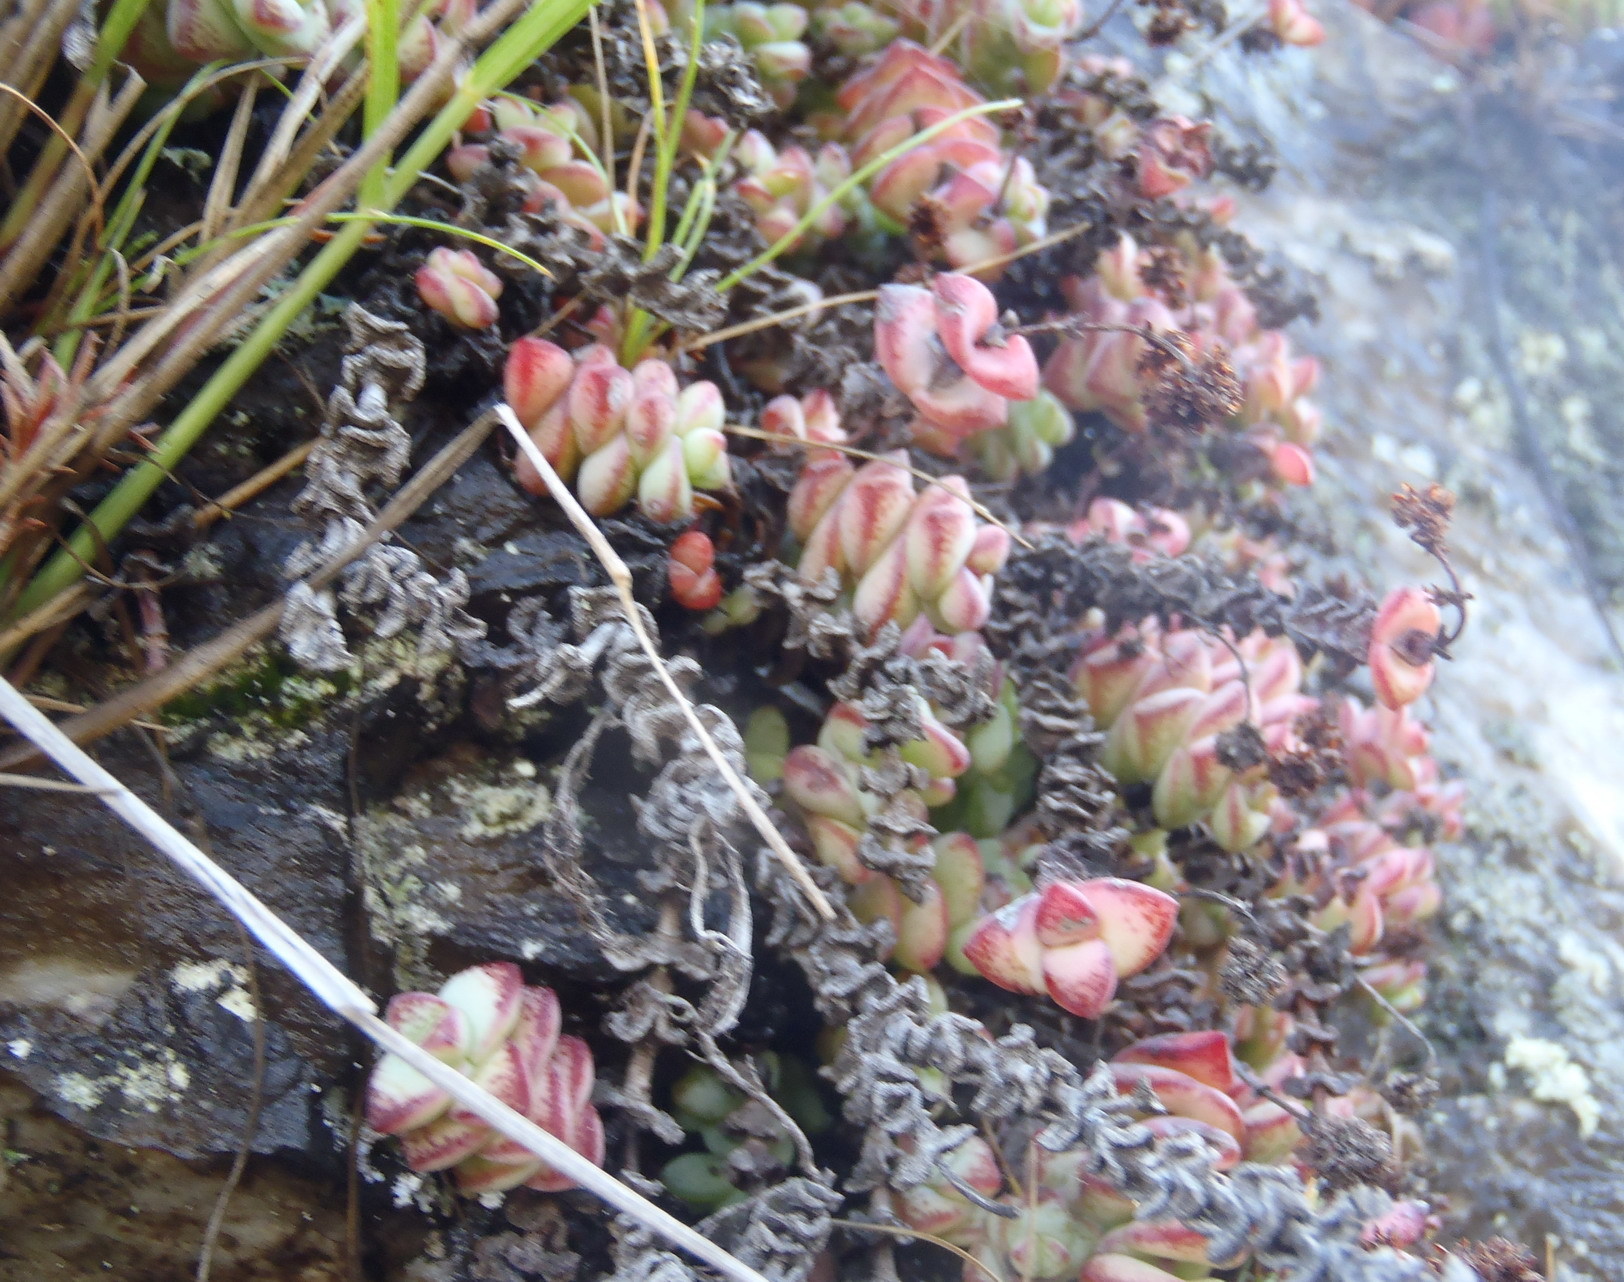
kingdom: Plantae
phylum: Tracheophyta
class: Magnoliopsida
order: Saxifragales
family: Crassulaceae
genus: Crassula
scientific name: Crassula perforata
